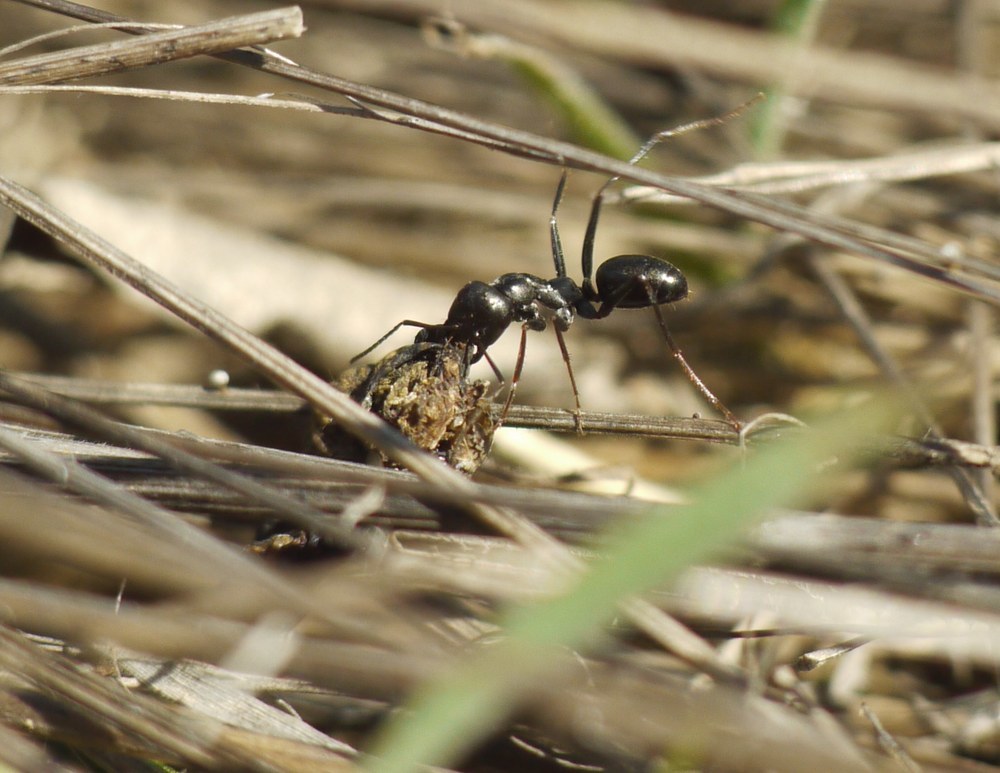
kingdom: Animalia
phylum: Arthropoda
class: Insecta
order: Hymenoptera
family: Formicidae
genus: Cataglyphis
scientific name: Cataglyphis aenescens
